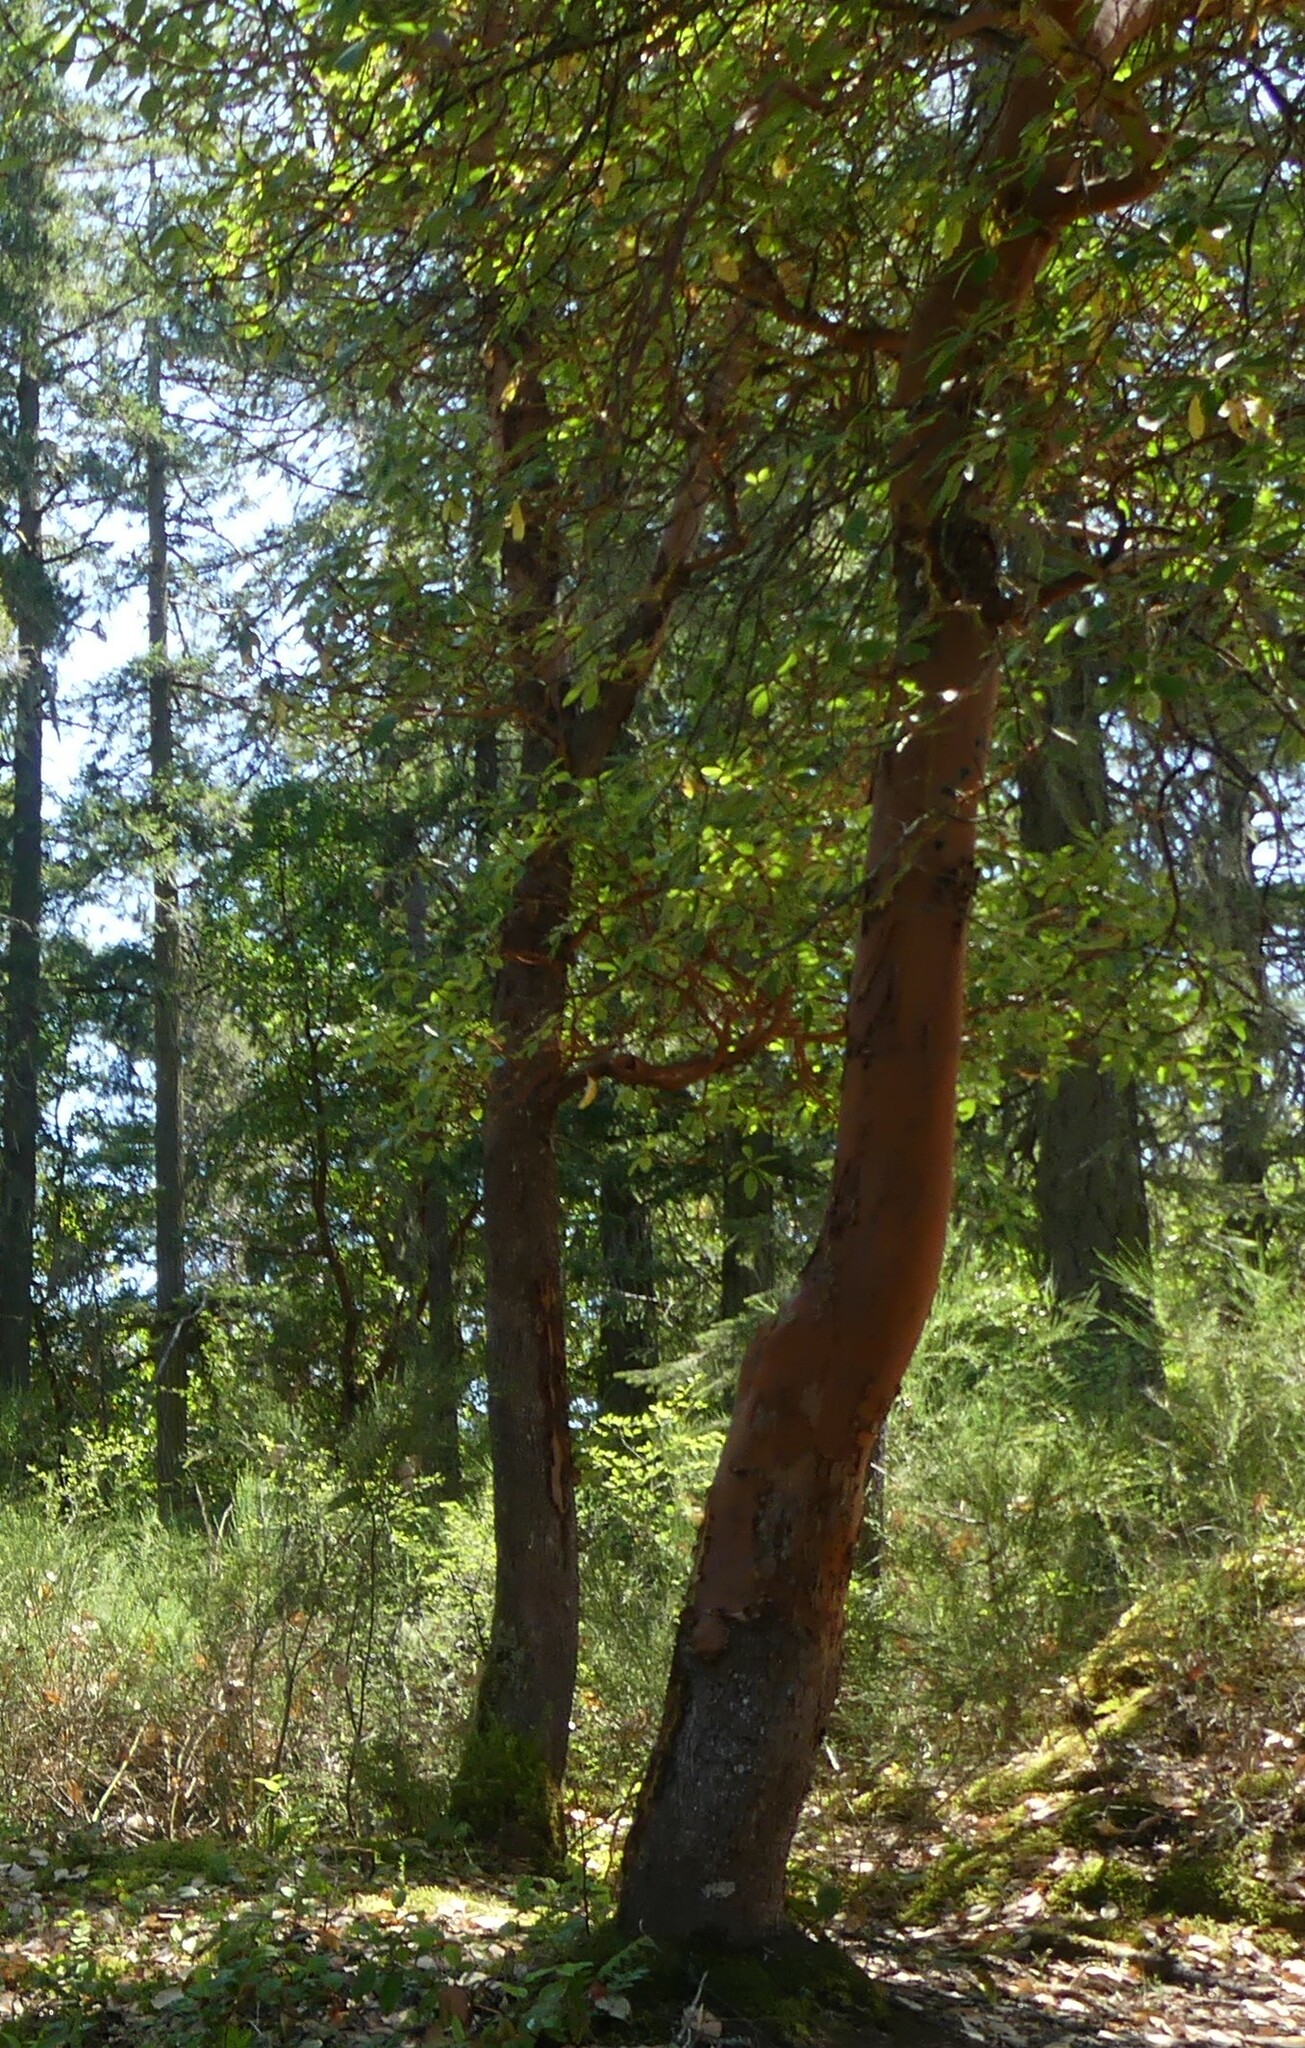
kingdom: Plantae
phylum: Tracheophyta
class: Magnoliopsida
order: Ericales
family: Ericaceae
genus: Arbutus
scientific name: Arbutus menziesii
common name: Pacific madrone
